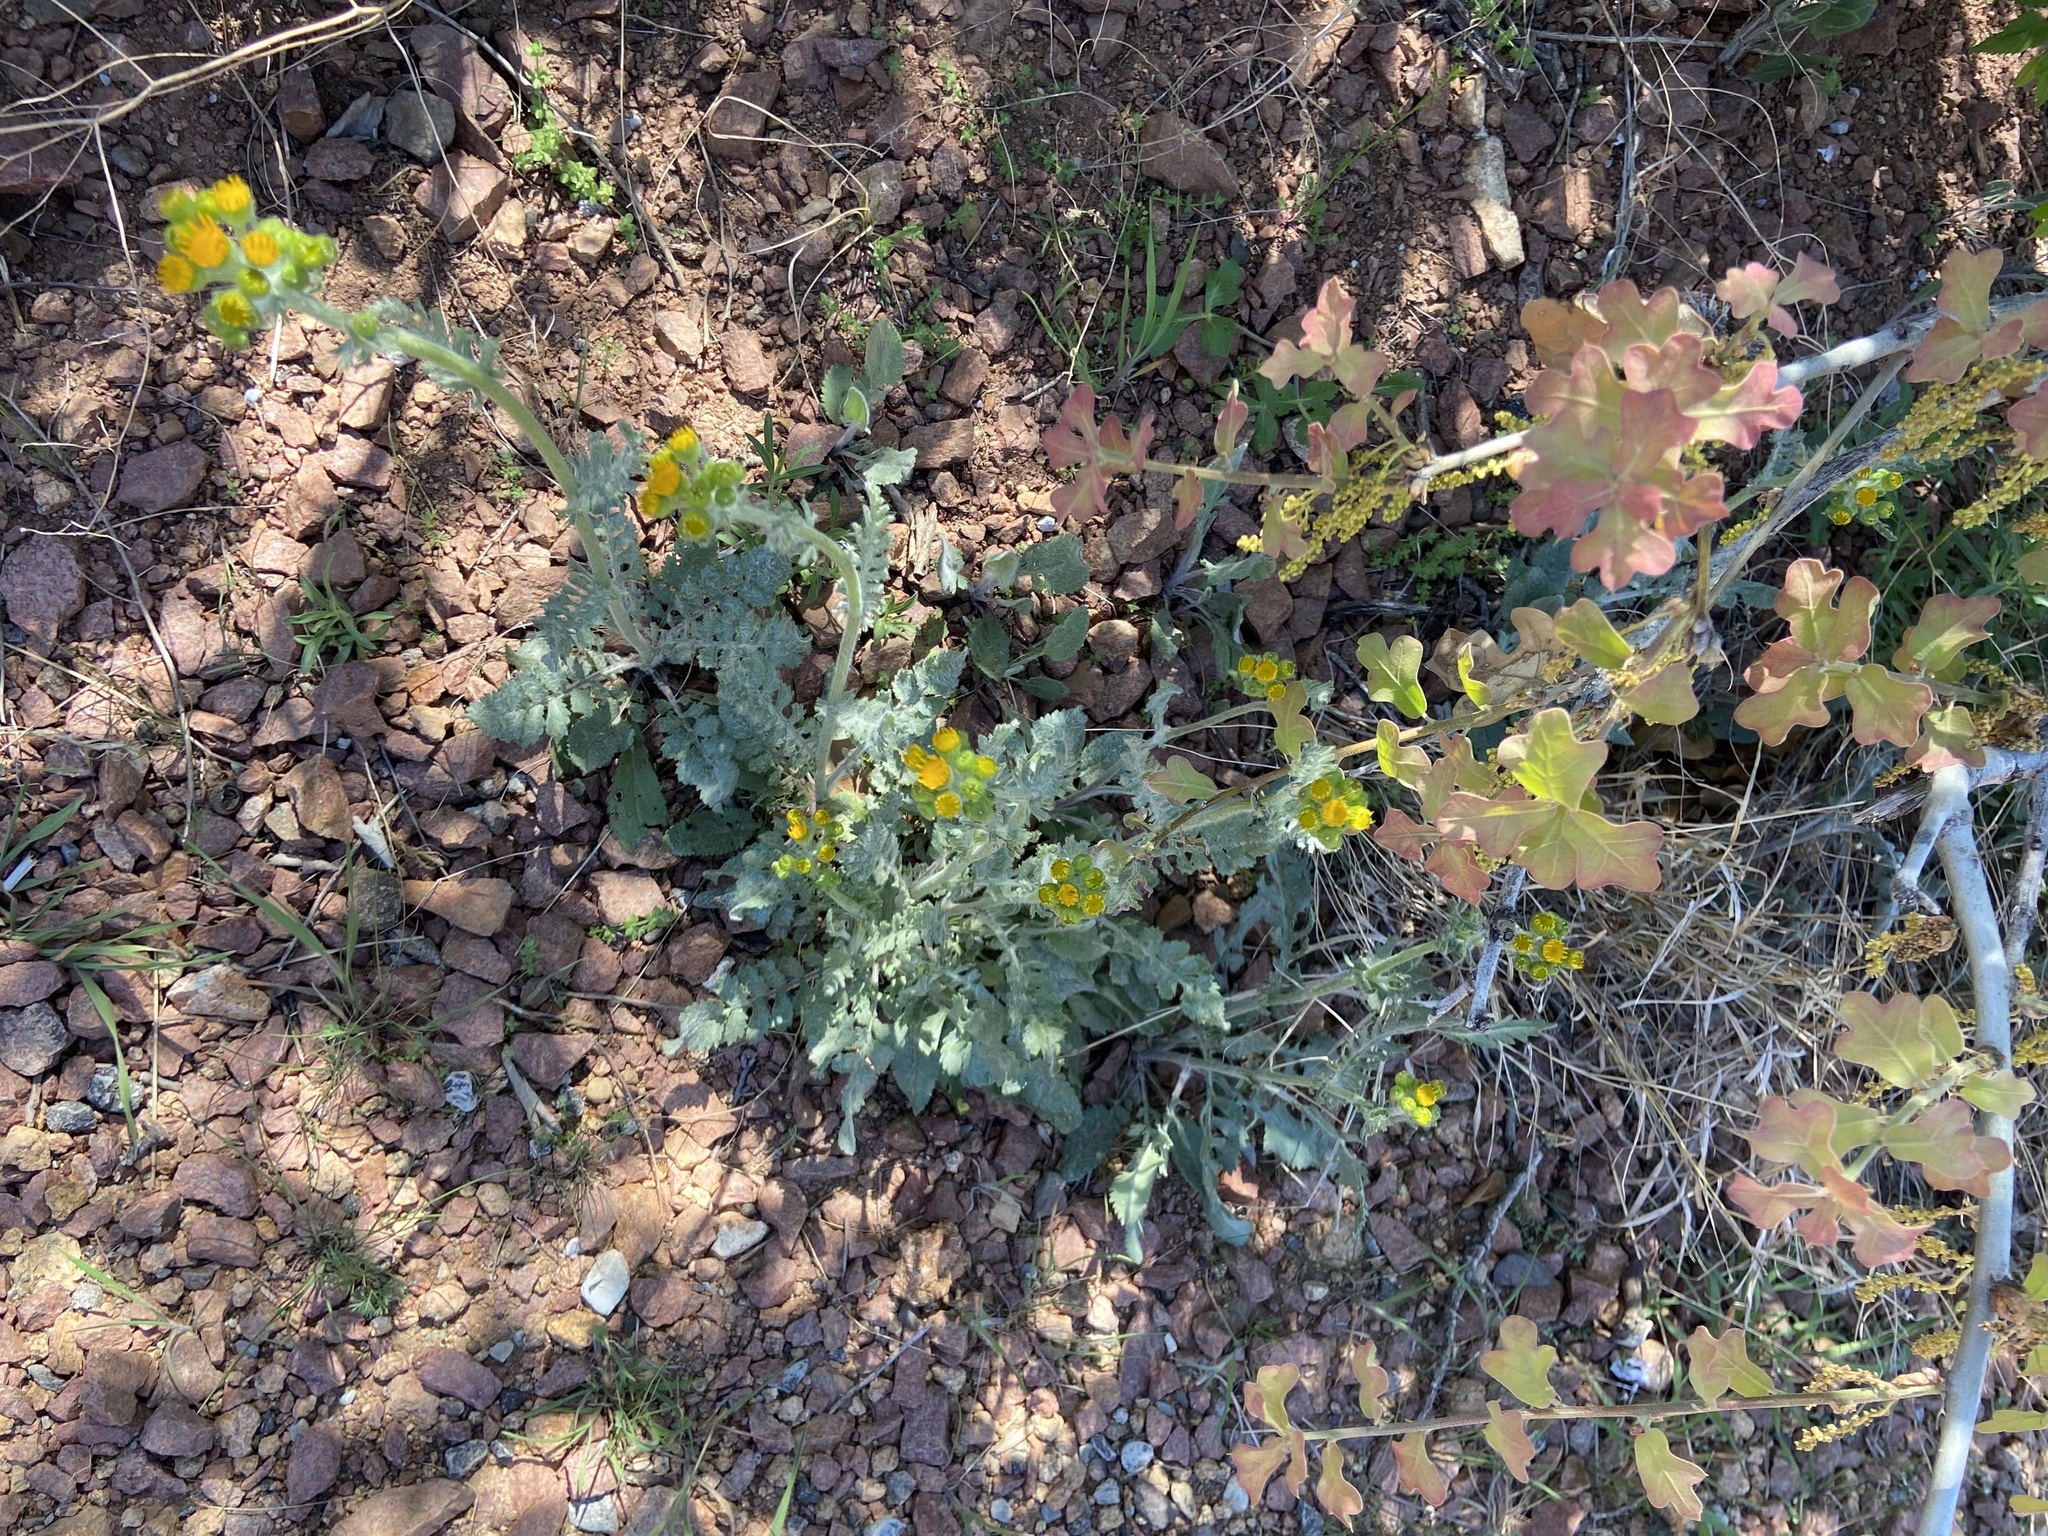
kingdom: Plantae
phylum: Tracheophyta
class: Magnoliopsida
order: Asterales
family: Asteraceae
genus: Packera
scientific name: Packera plattensis
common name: Prairie groundsel
